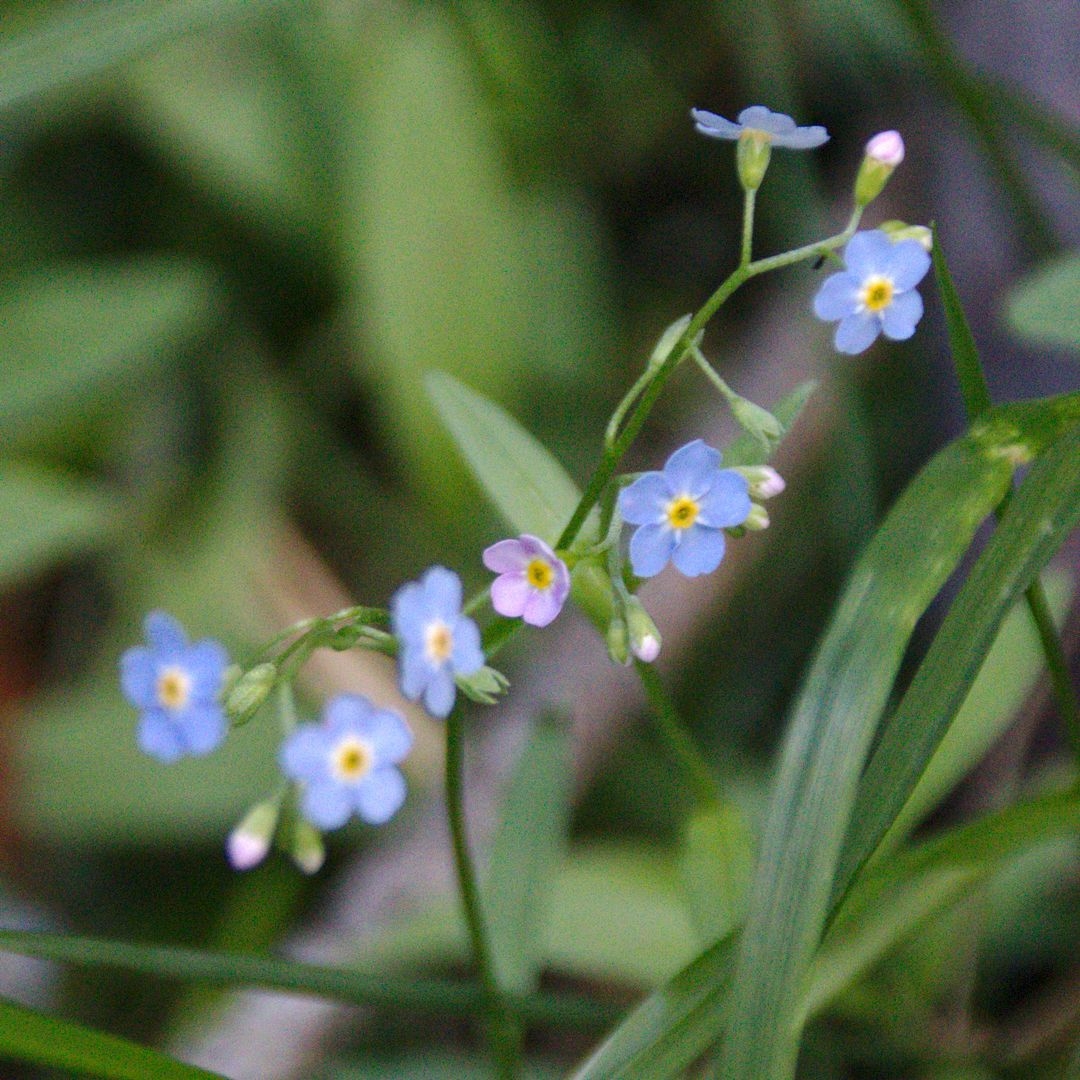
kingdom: Plantae
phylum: Tracheophyta
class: Magnoliopsida
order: Boraginales
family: Boraginaceae
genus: Myosotis
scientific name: Myosotis scorpioides
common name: Water forget-me-not
